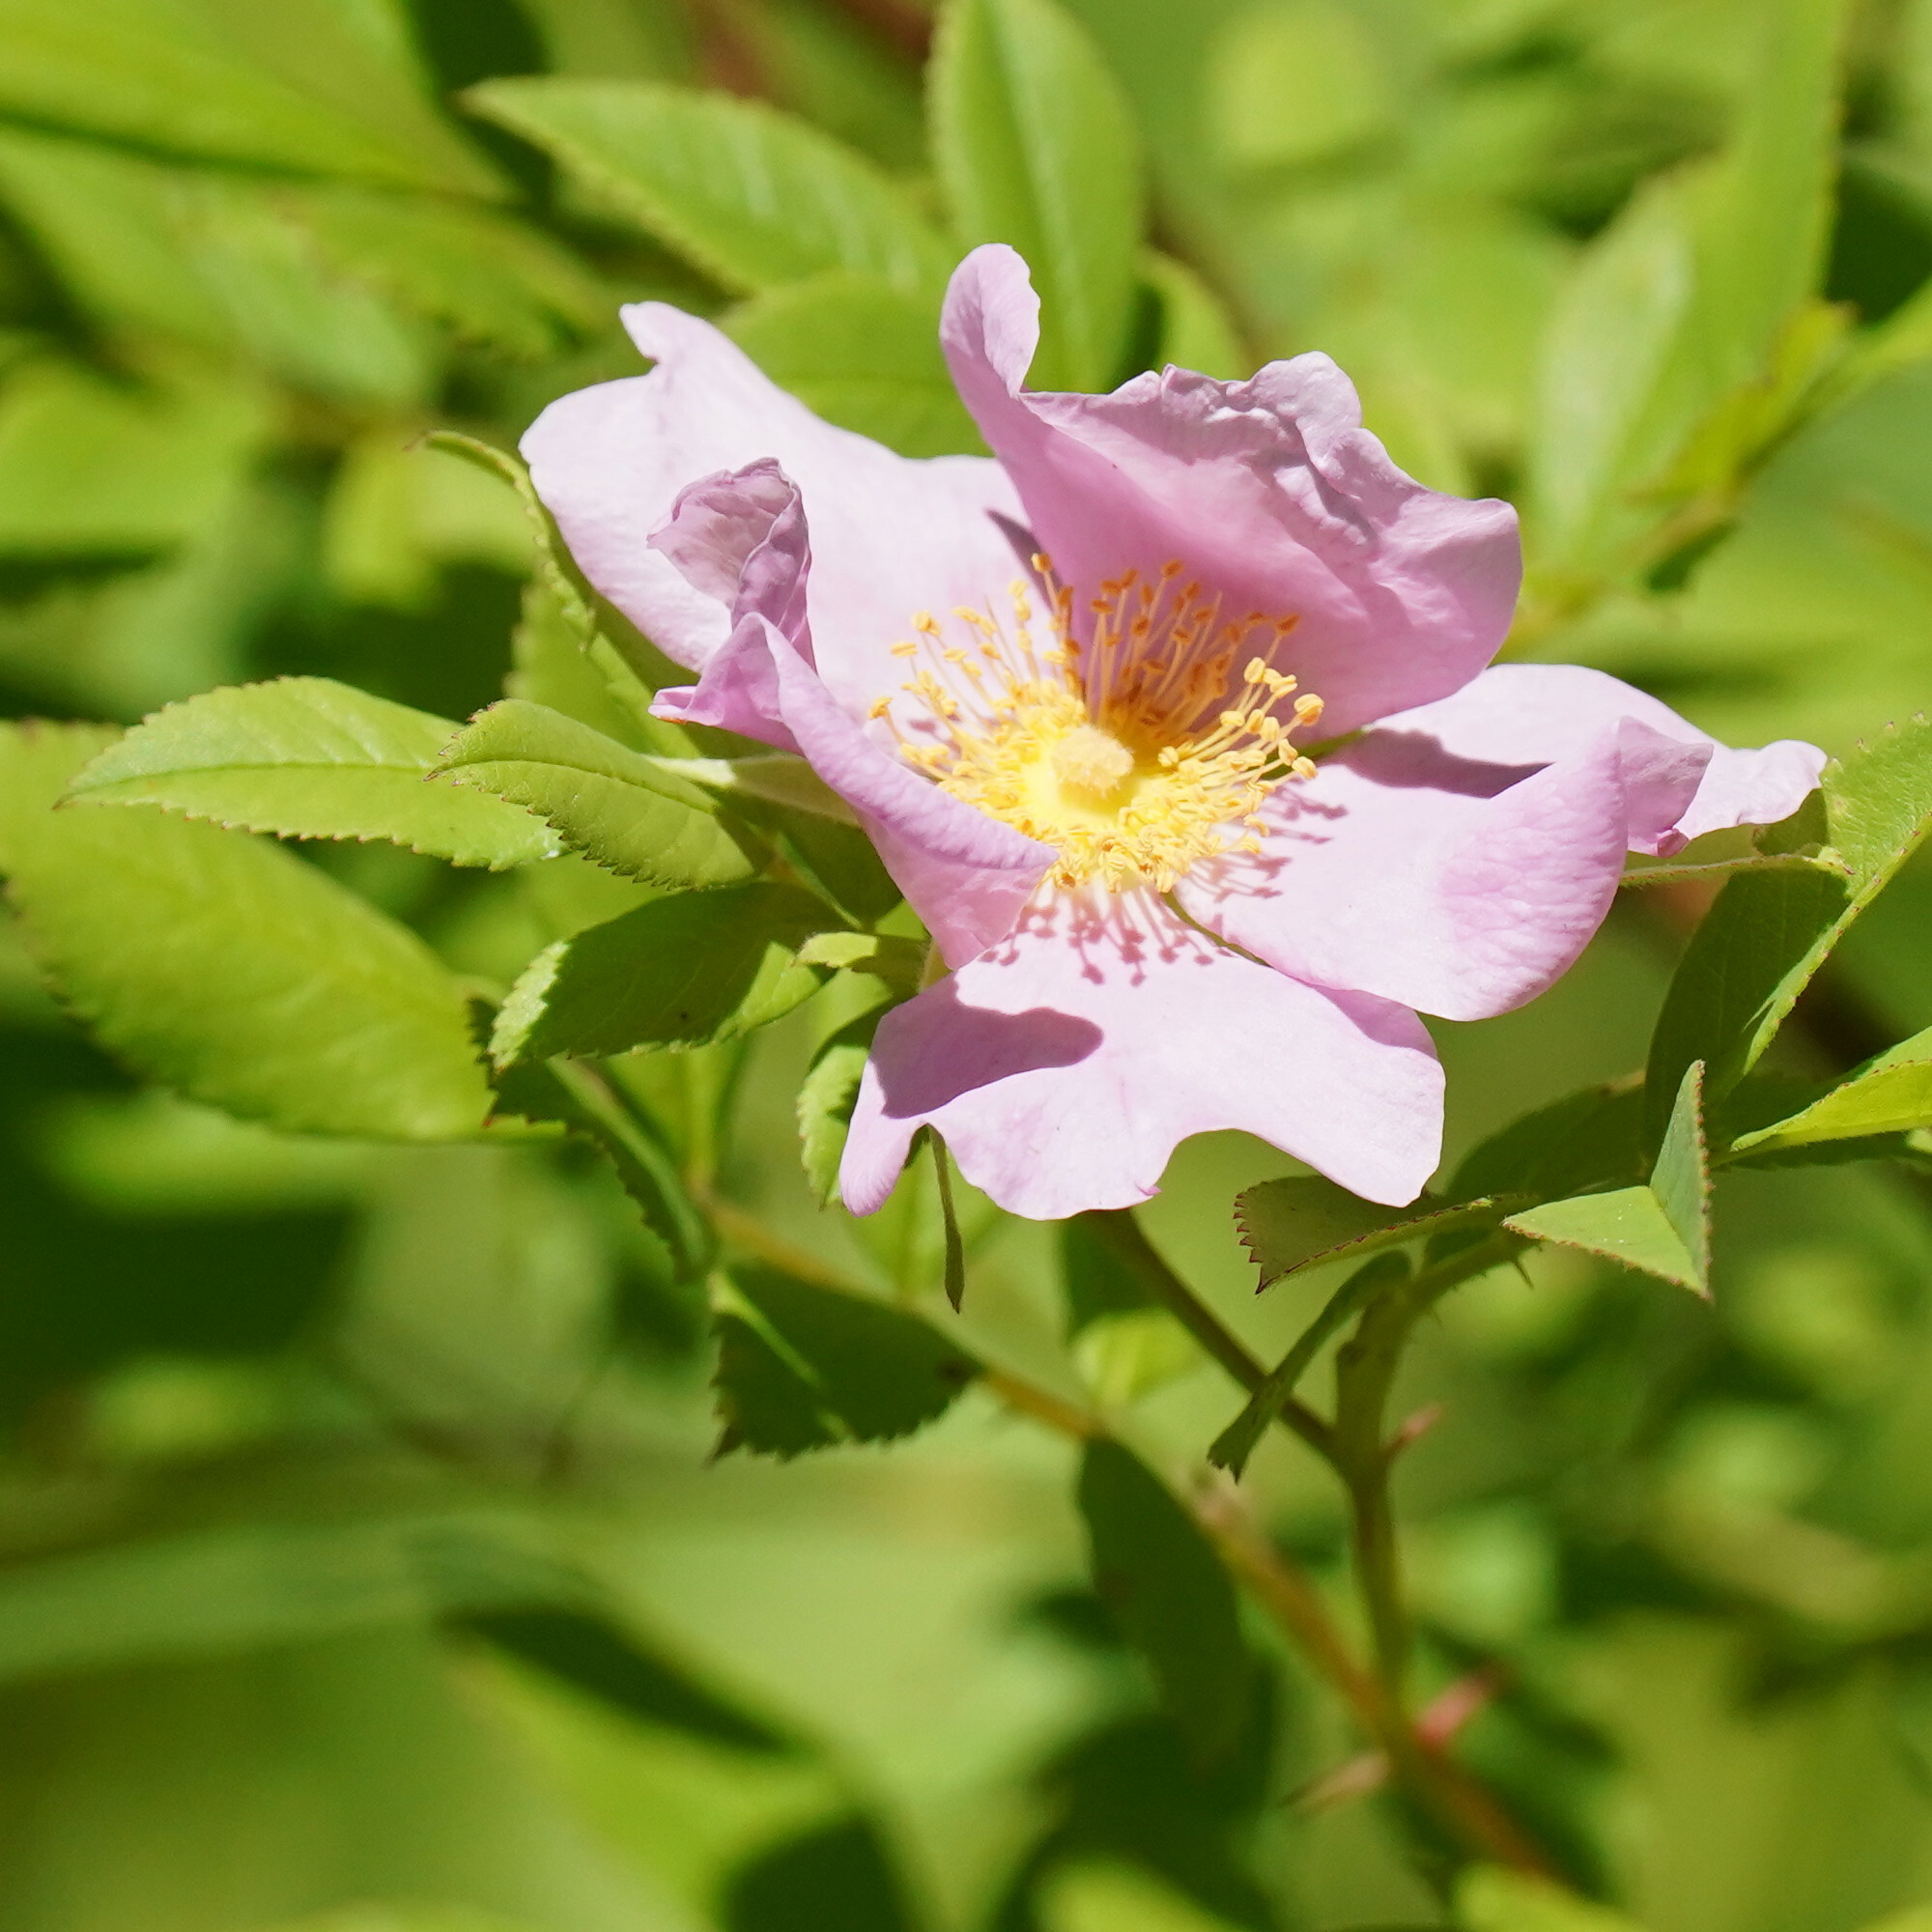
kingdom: Plantae
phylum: Tracheophyta
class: Magnoliopsida
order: Rosales
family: Rosaceae
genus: Rosa
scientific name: Rosa palustris
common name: Swamp rose
